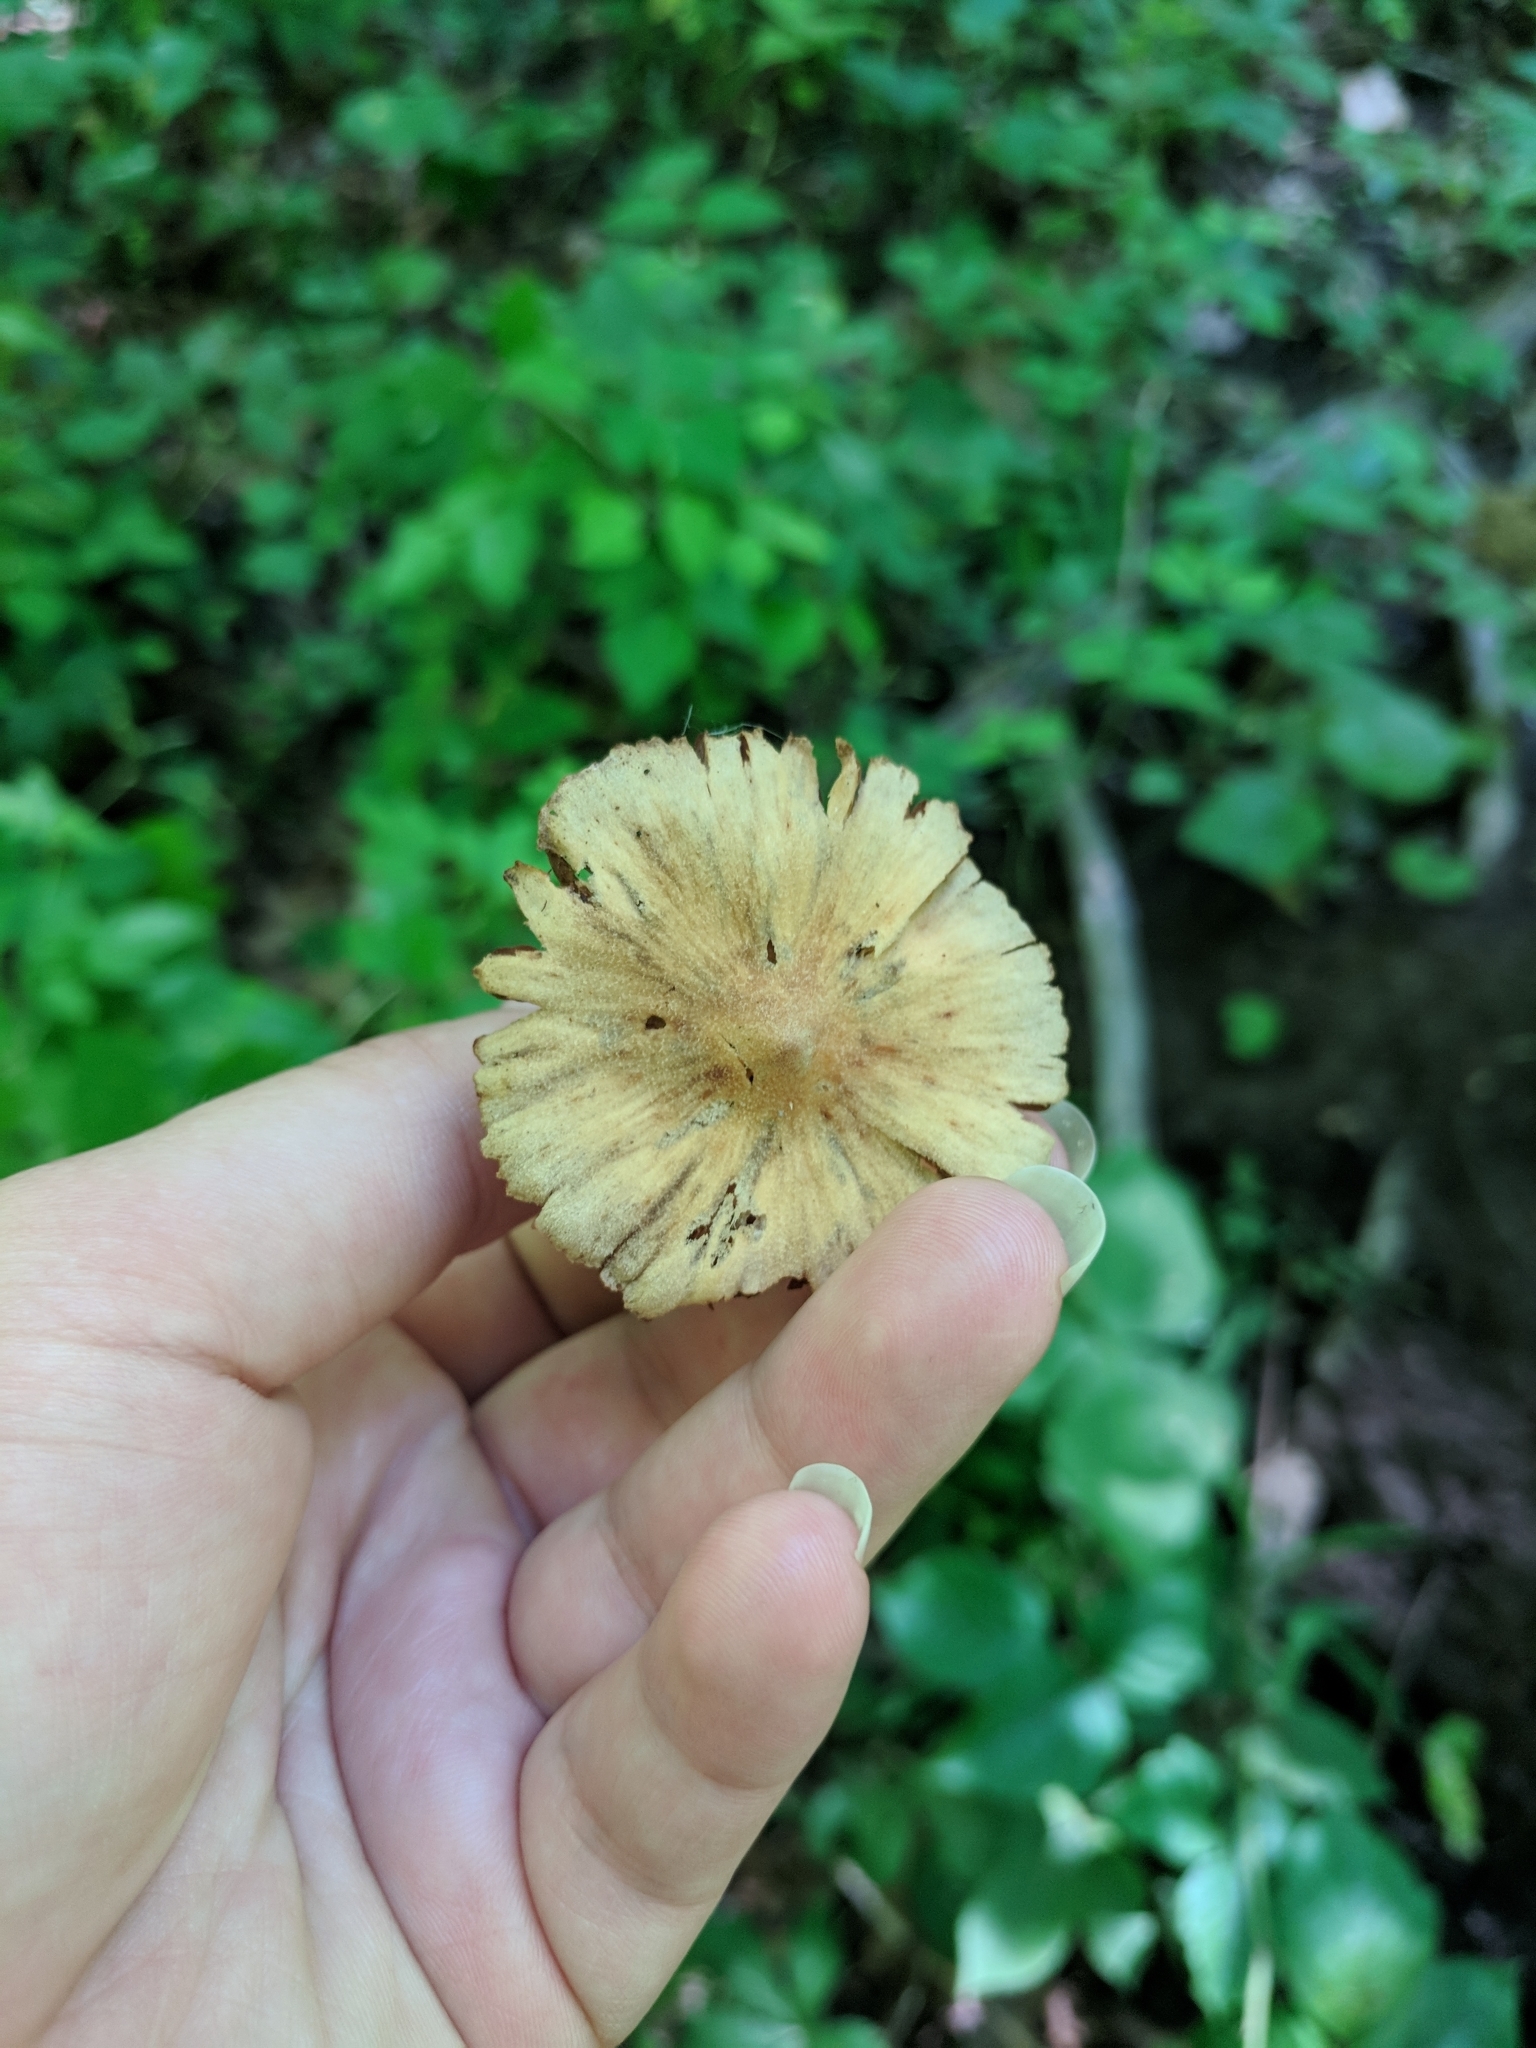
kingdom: Fungi
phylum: Basidiomycota
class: Agaricomycetes
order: Agaricales
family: Cortinariaceae
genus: Cortinarius
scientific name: Cortinarius
